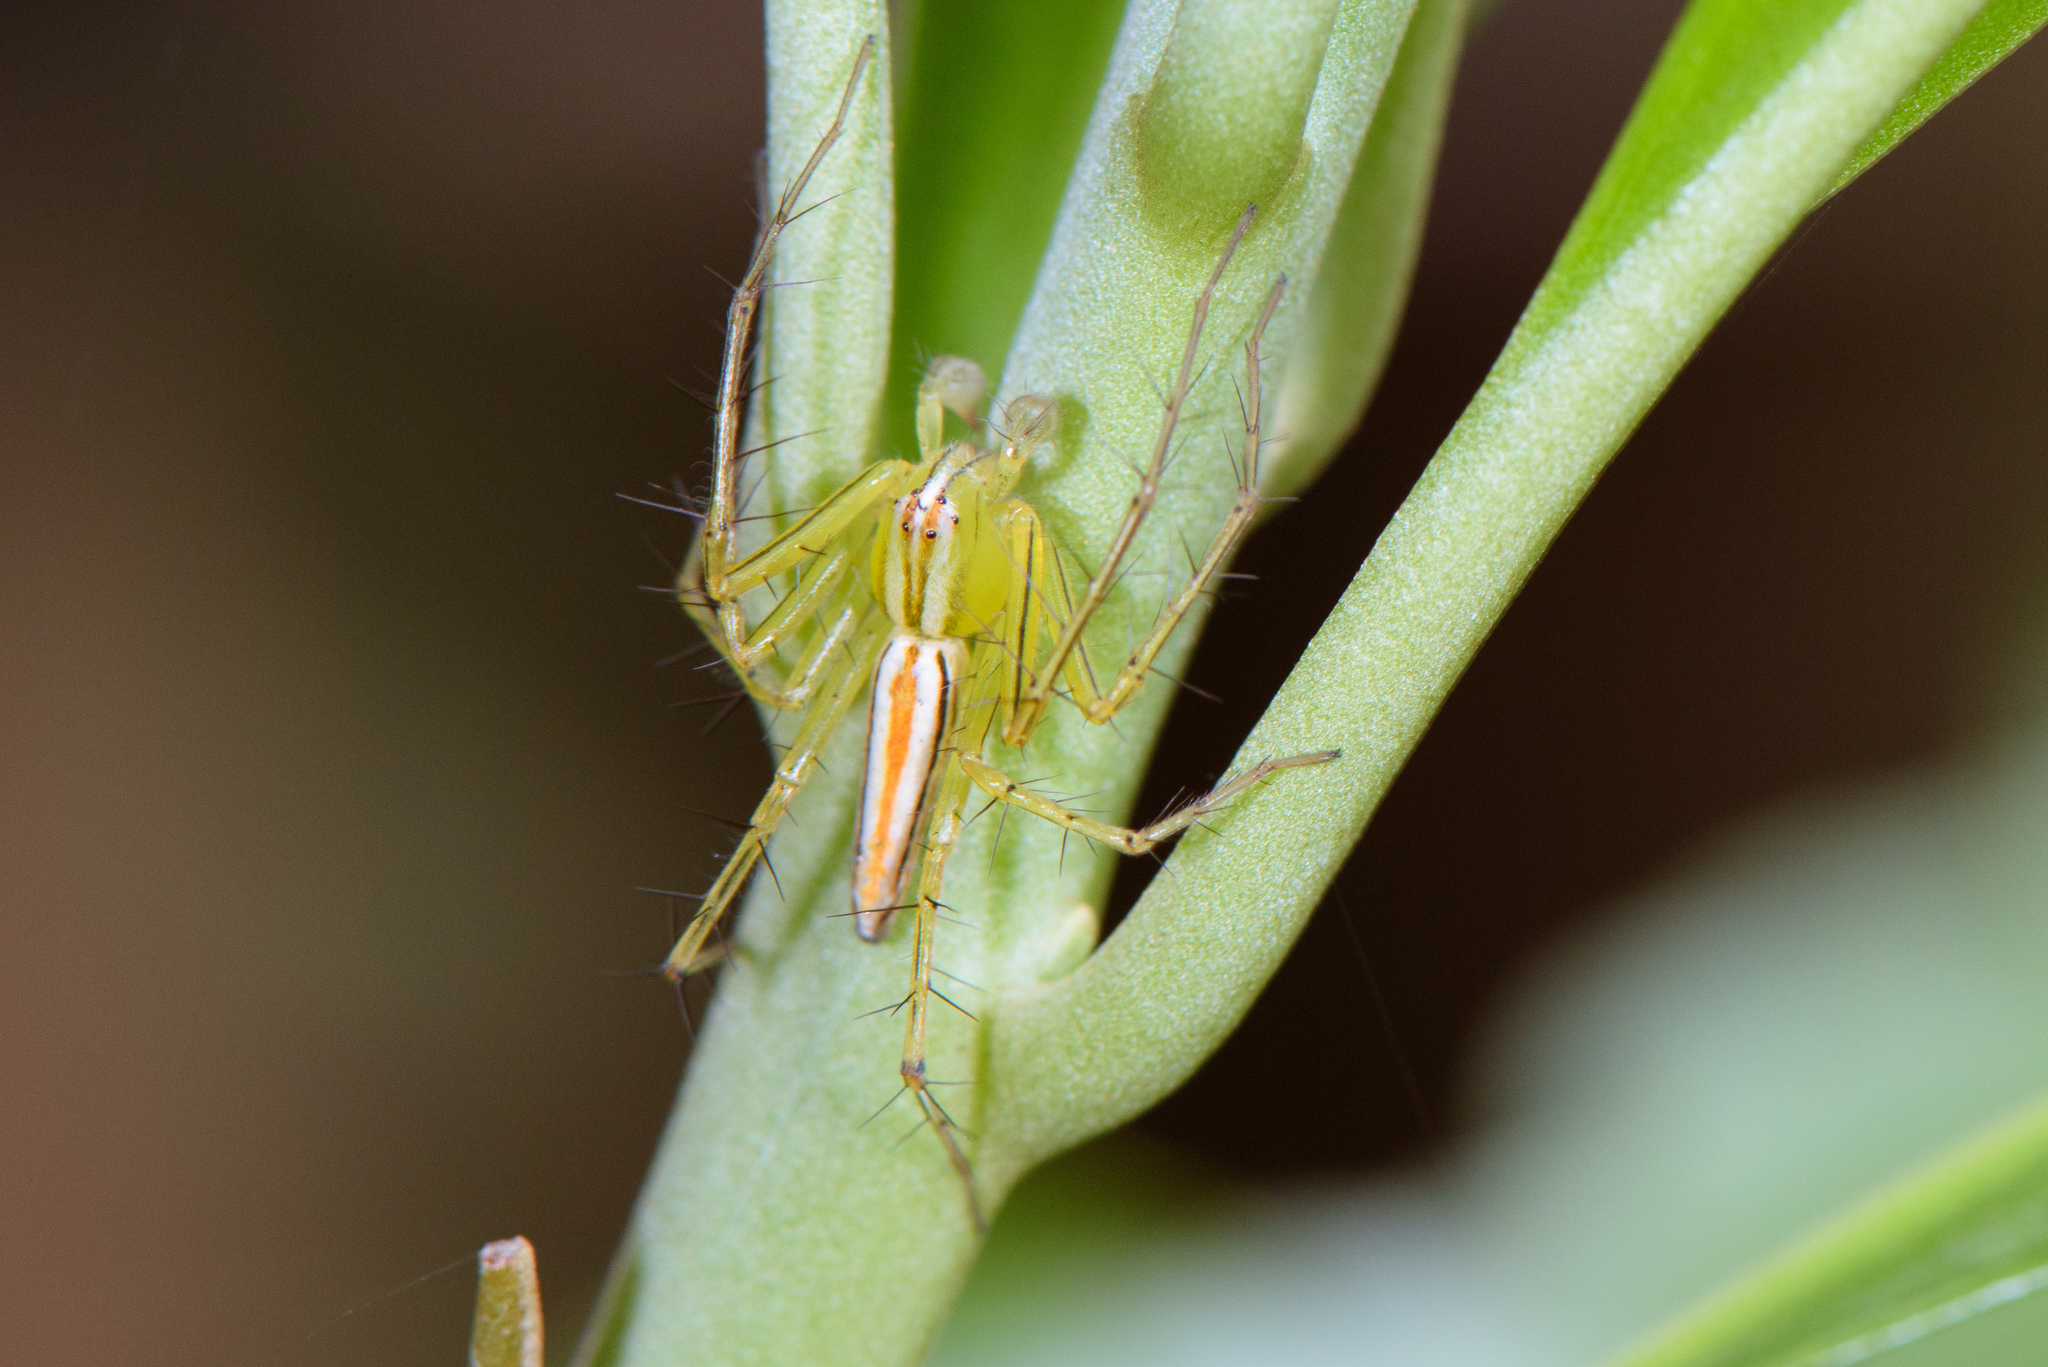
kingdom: Animalia
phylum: Arthropoda
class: Arachnida
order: Araneae
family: Oxyopidae
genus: Oxyopes
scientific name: Oxyopes striagatus
